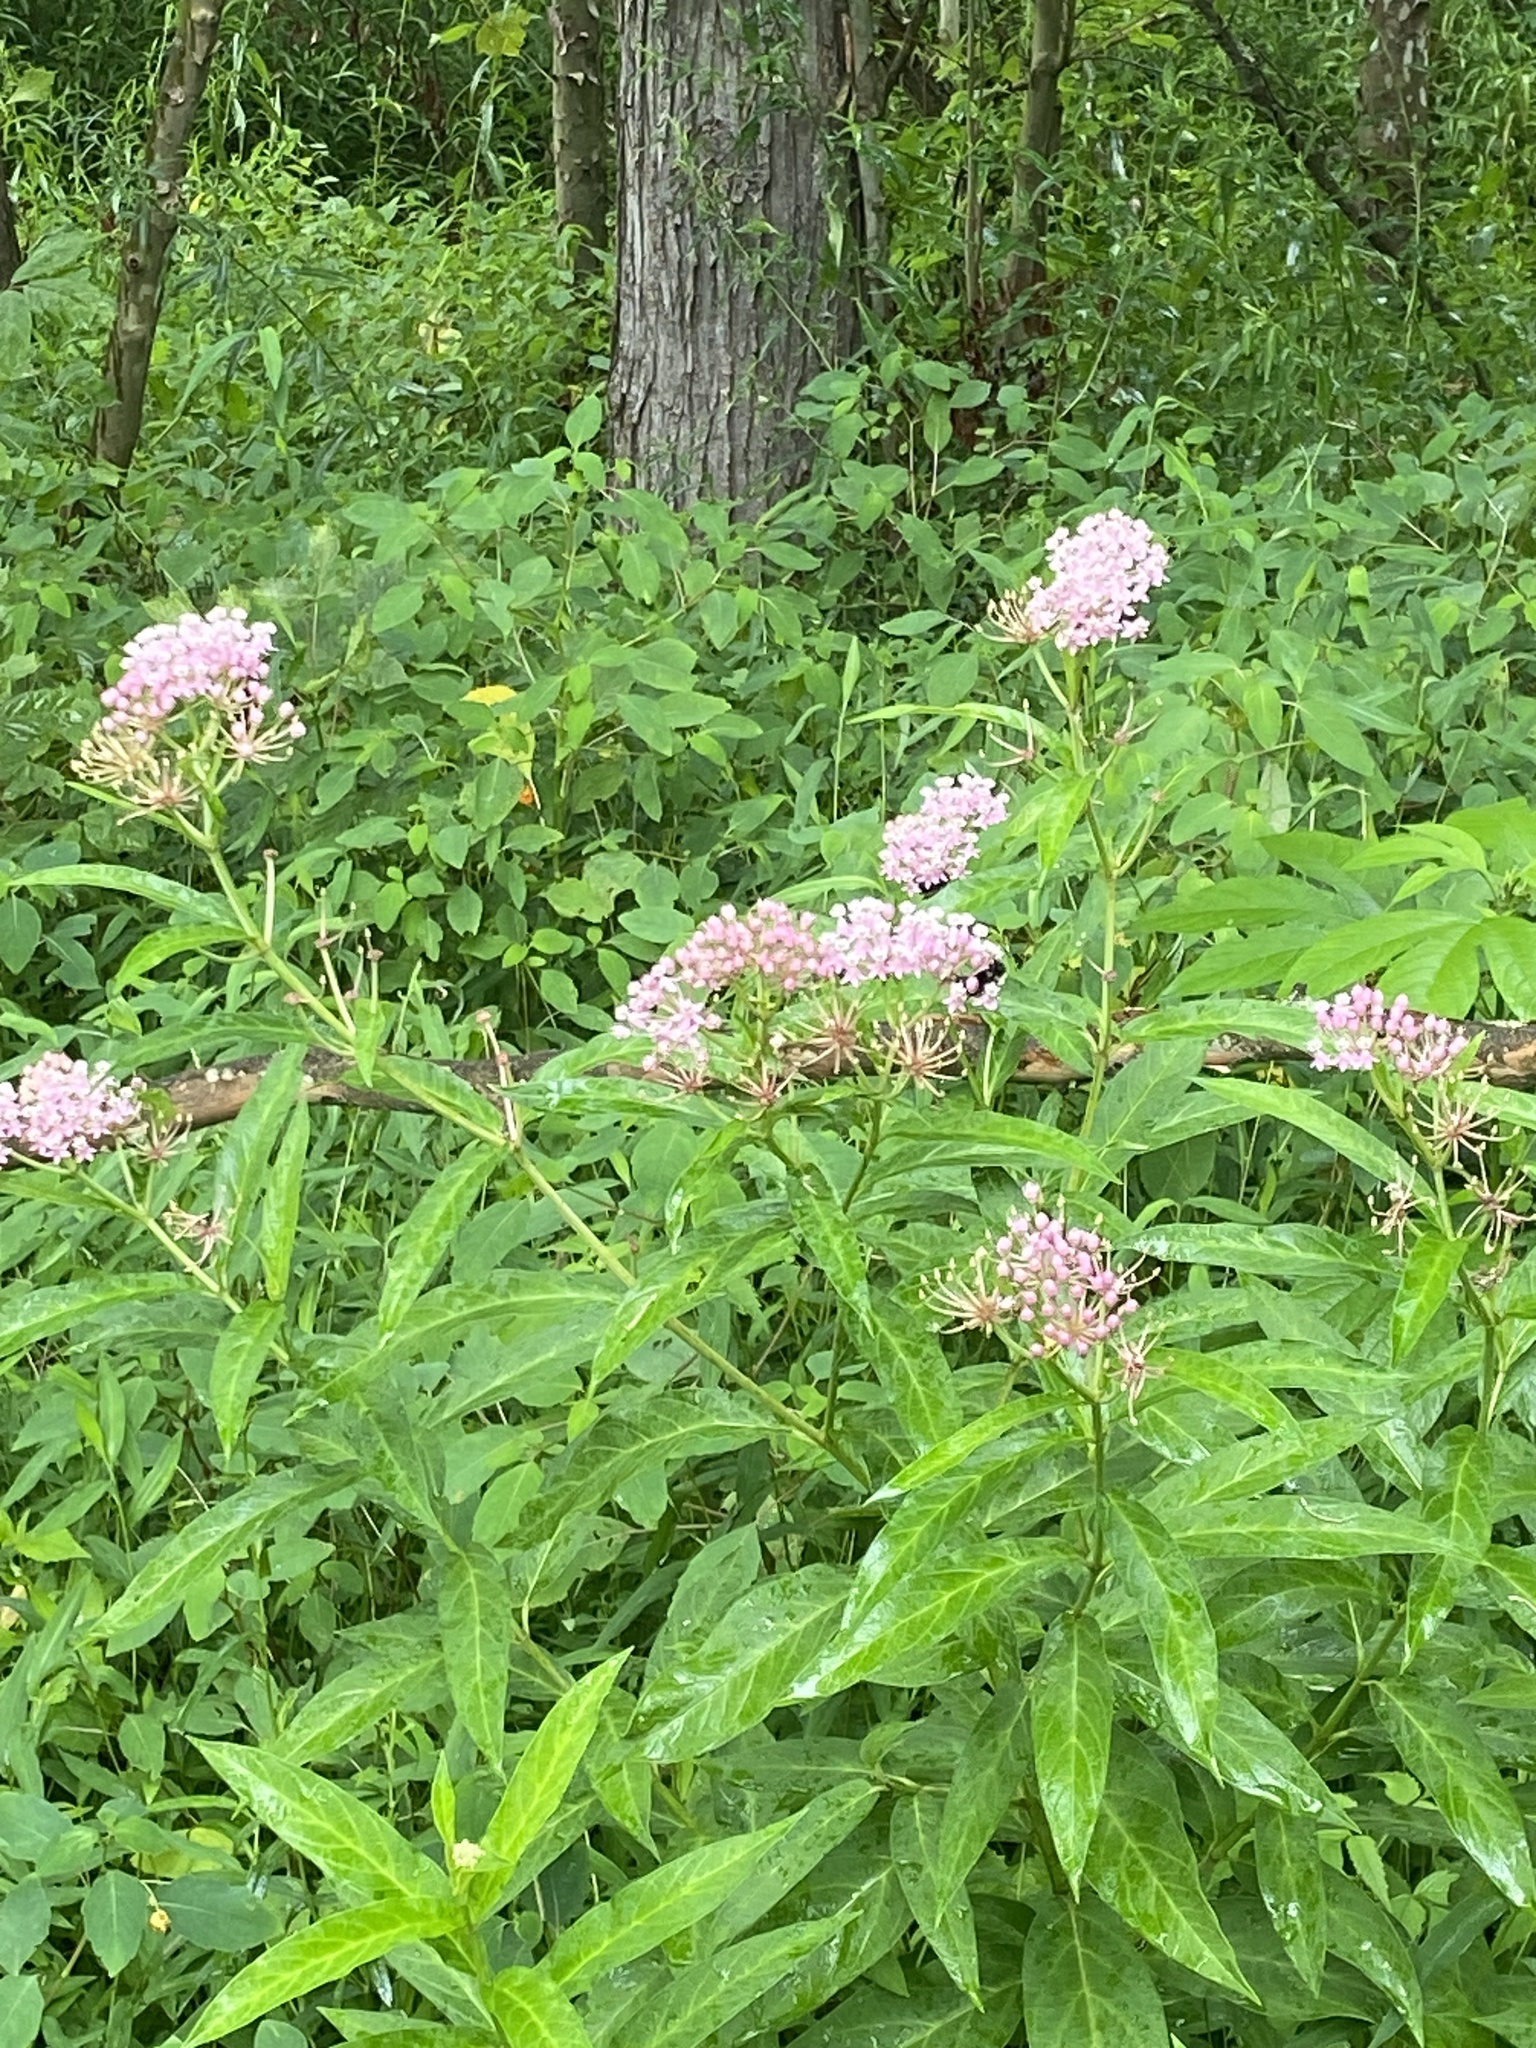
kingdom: Plantae
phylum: Tracheophyta
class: Magnoliopsida
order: Gentianales
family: Apocynaceae
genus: Asclepias
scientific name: Asclepias incarnata
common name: Swamp milkweed
